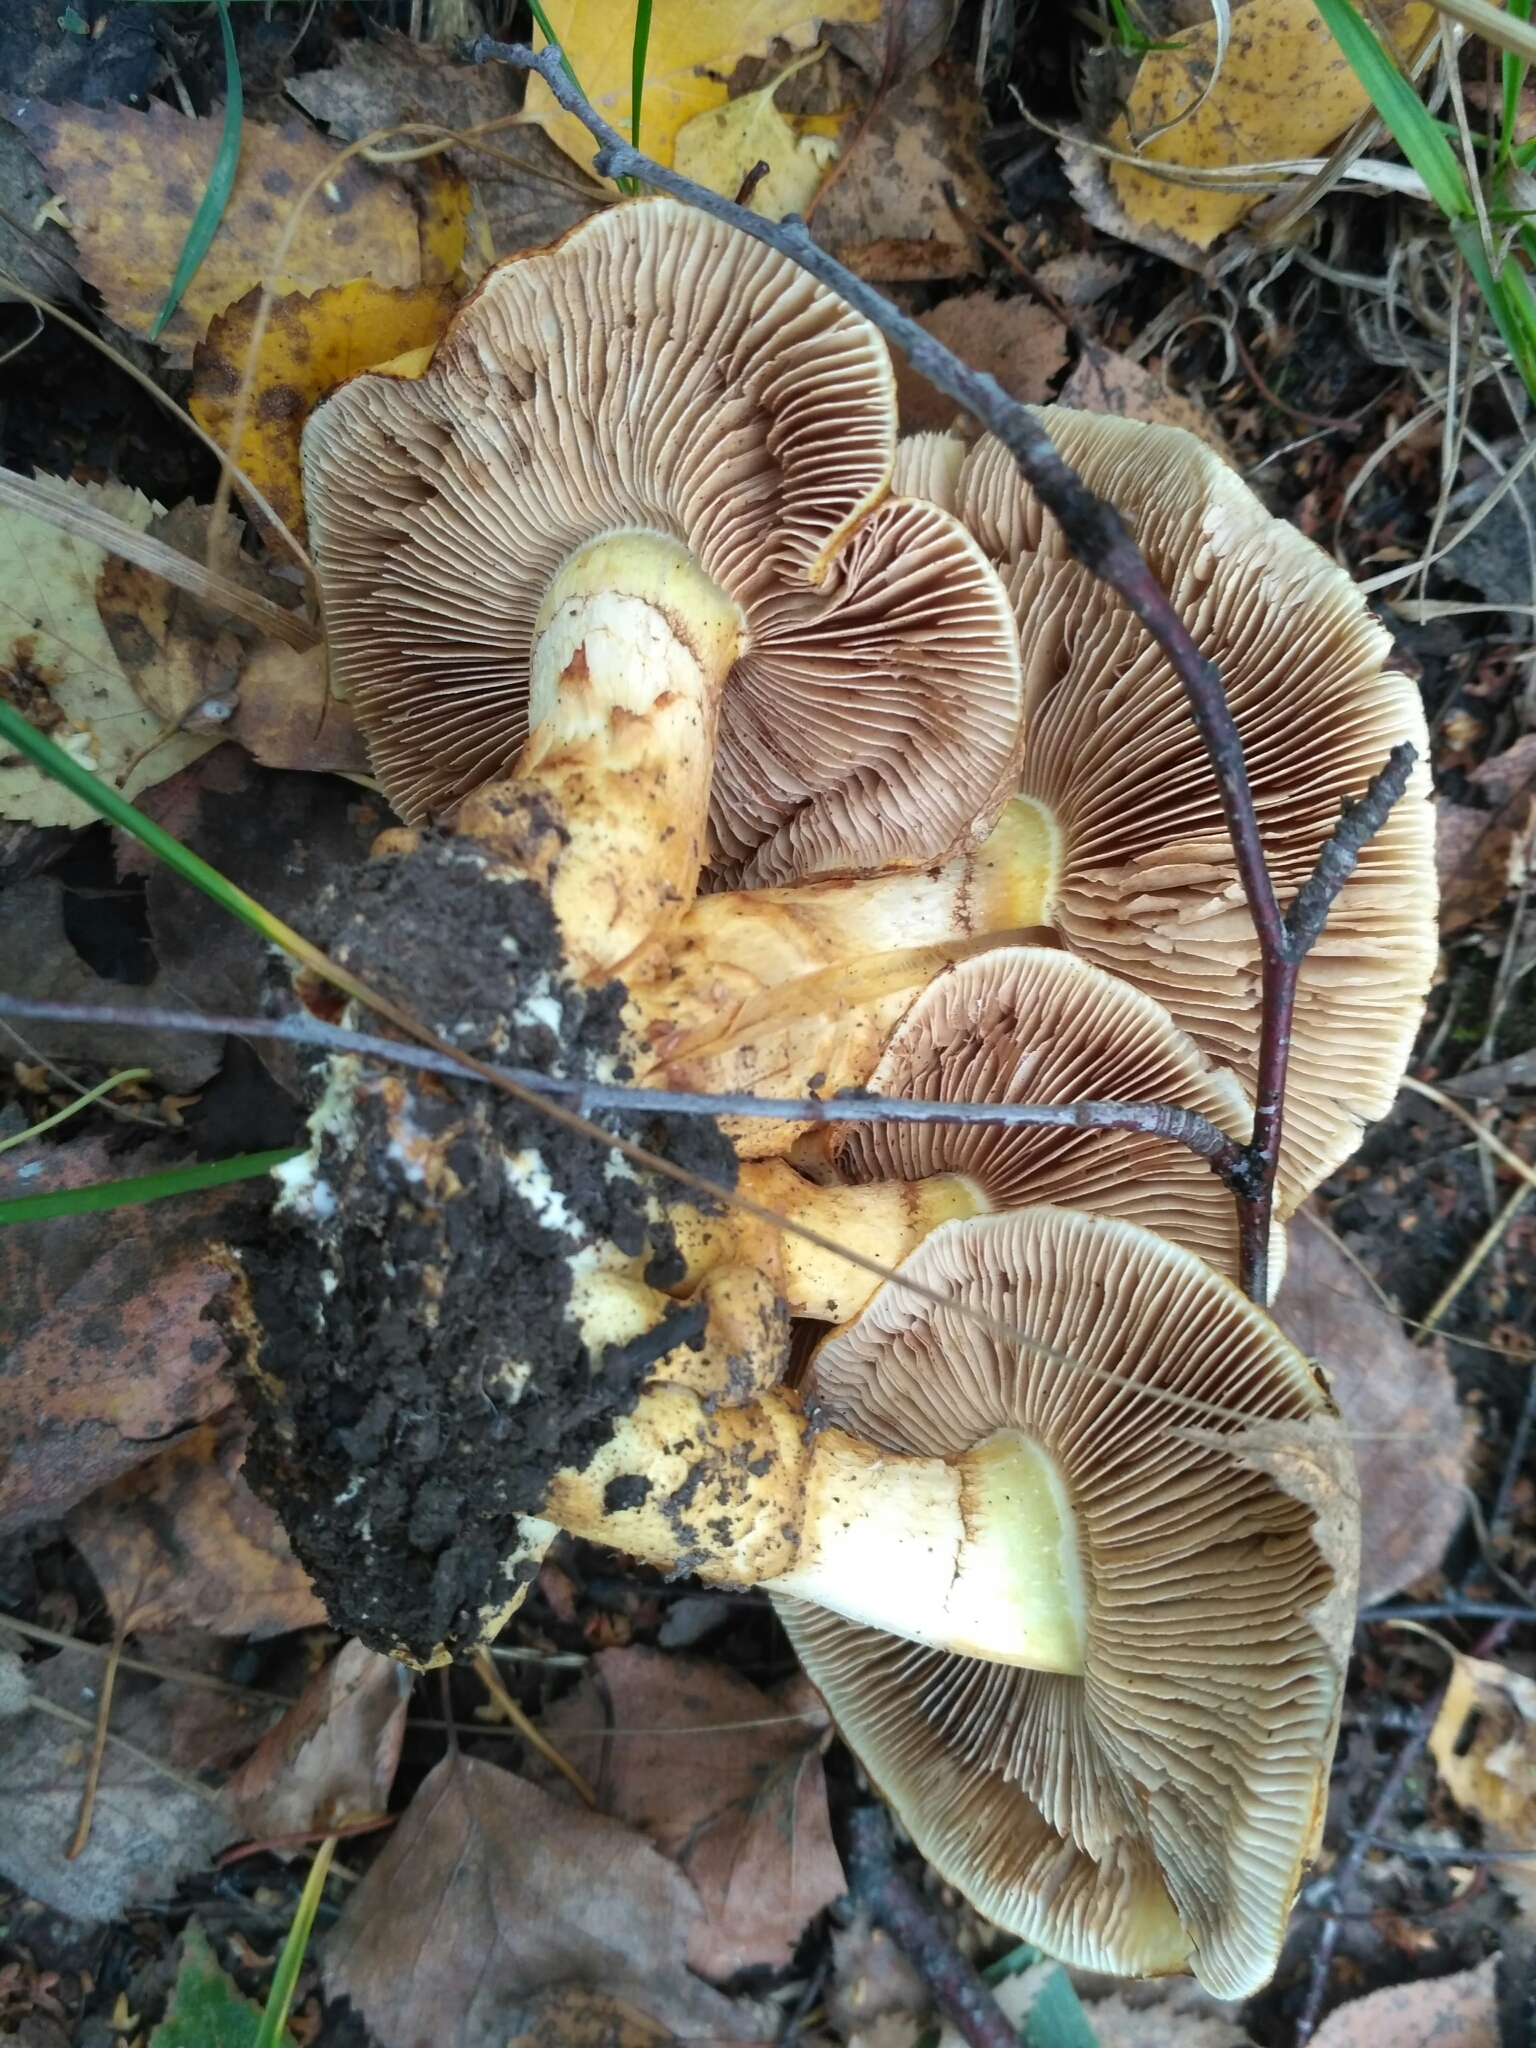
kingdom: Fungi
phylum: Basidiomycota
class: Agaricomycetes
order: Agaricales
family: Strophariaceae
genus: Pholiota
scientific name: Pholiota spumosa
